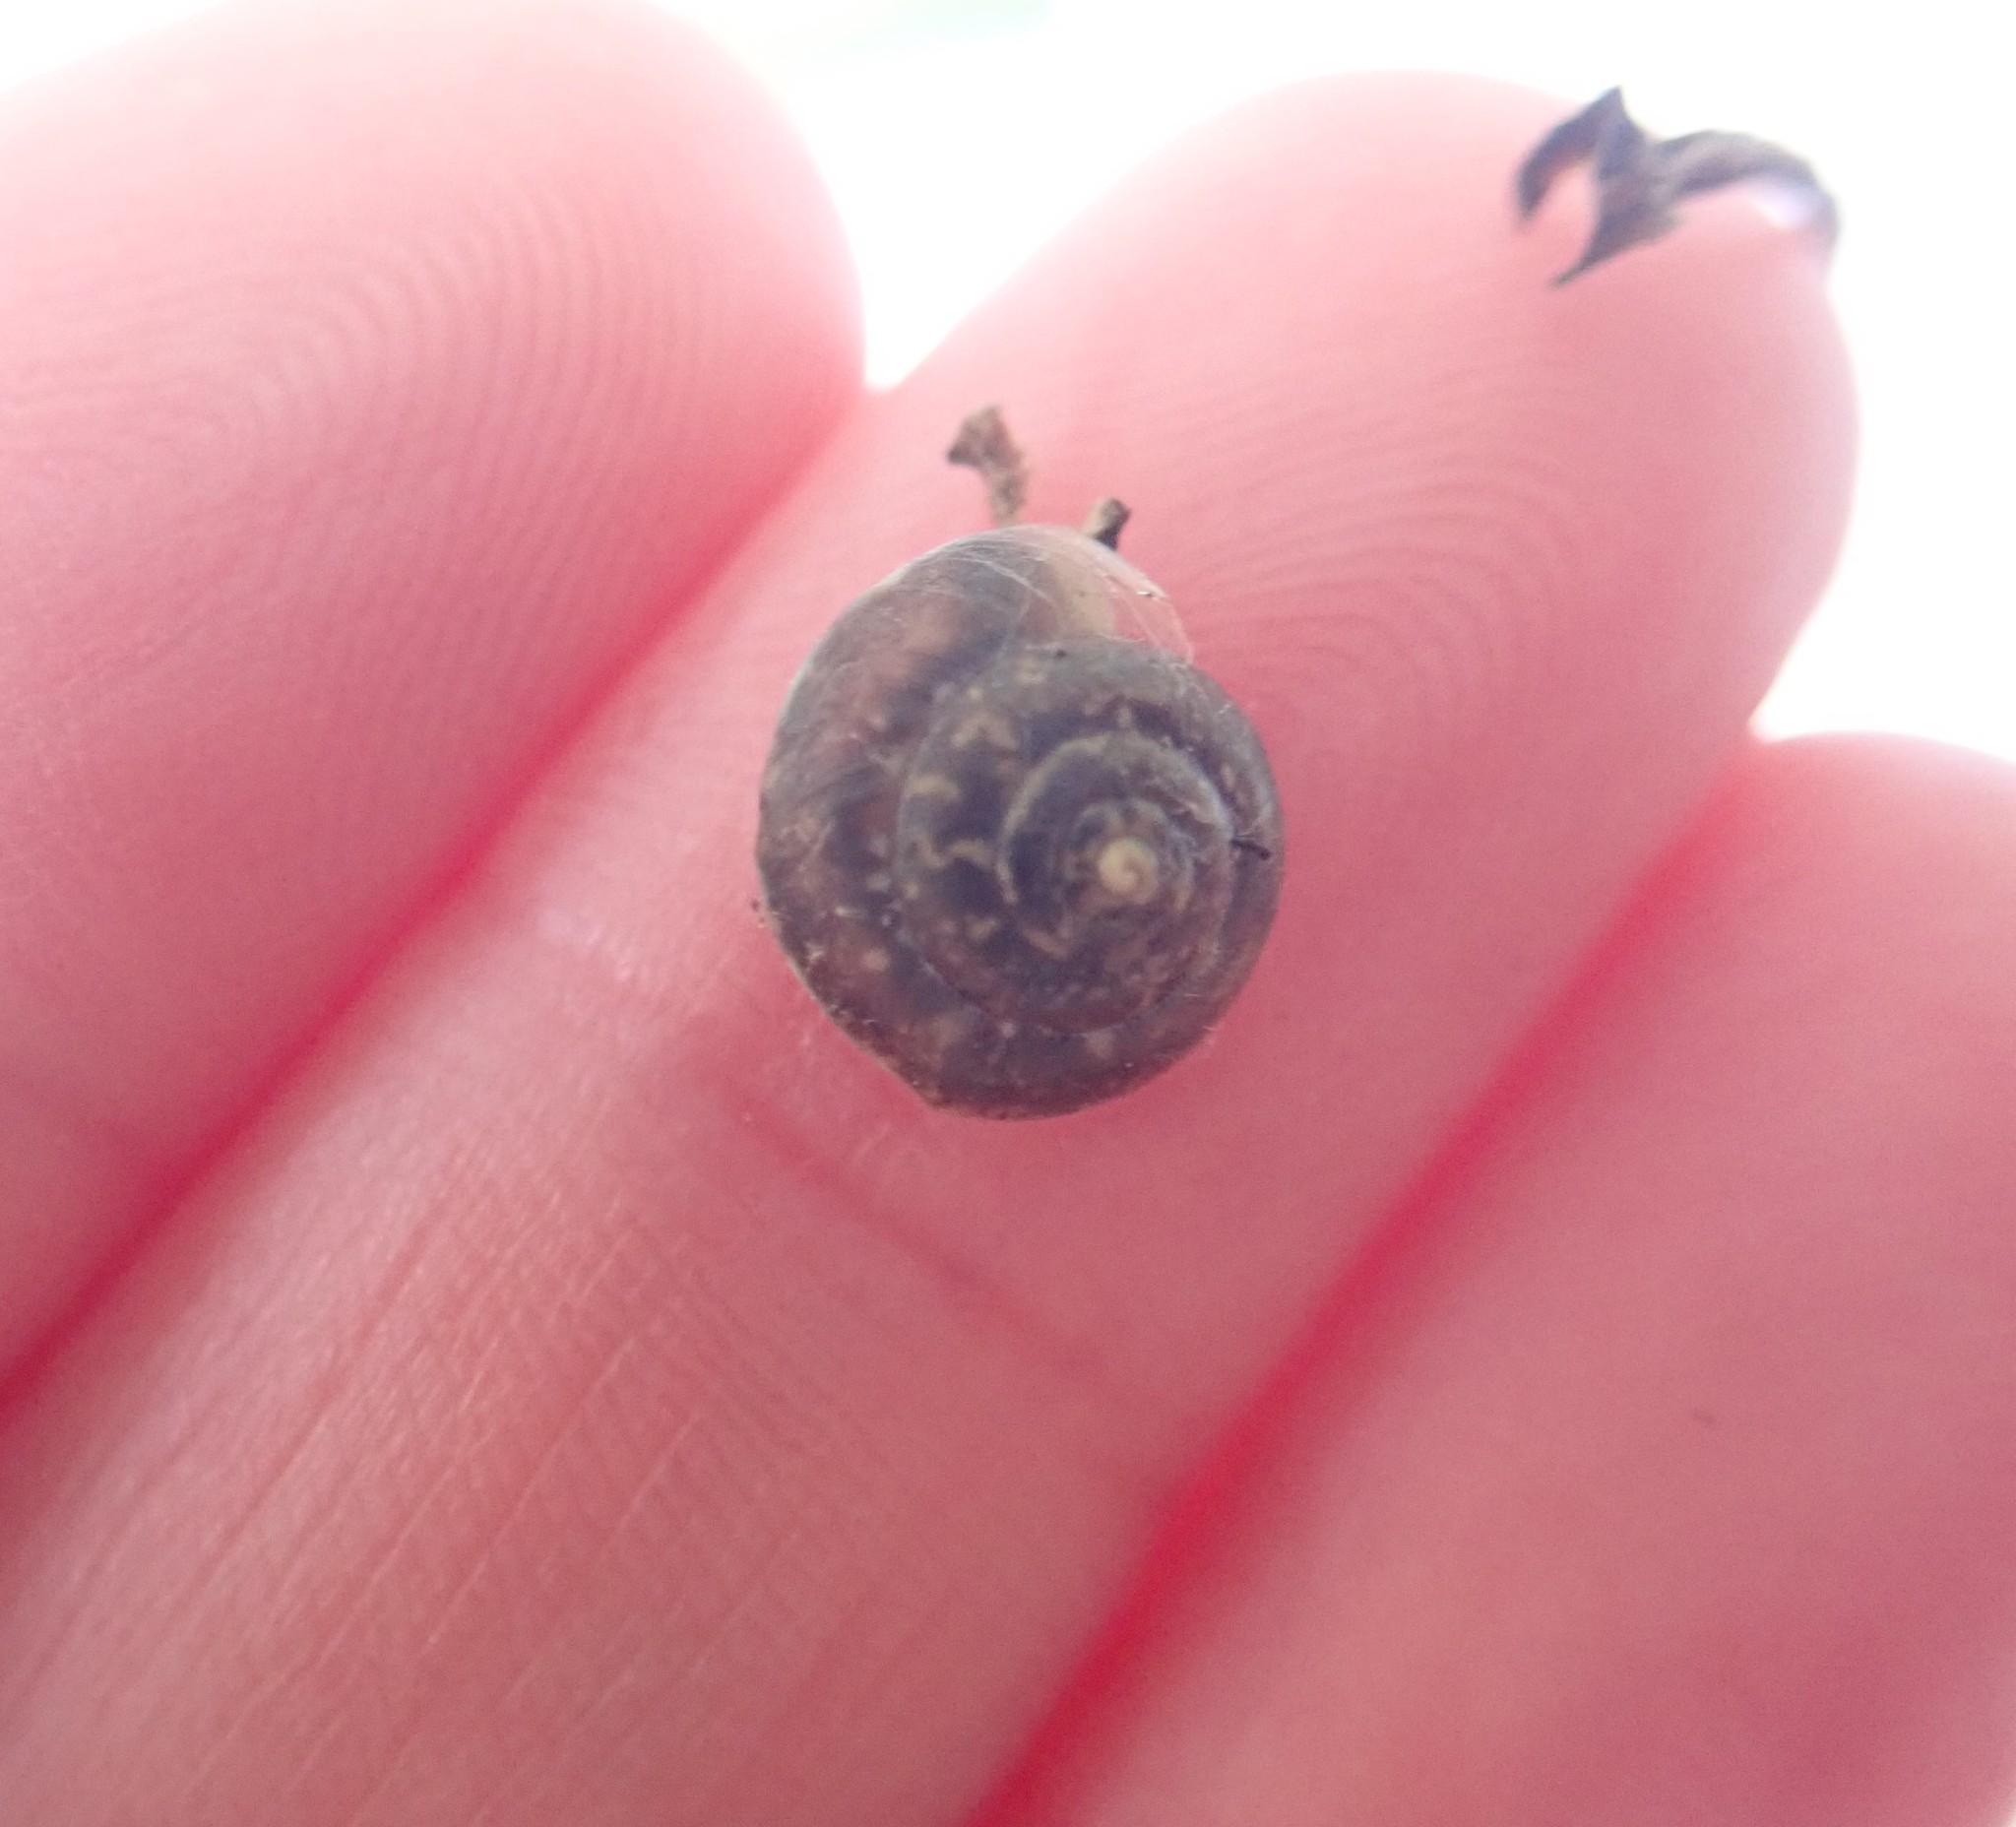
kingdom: Animalia
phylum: Mollusca
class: Gastropoda
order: Stylommatophora
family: Hygromiidae
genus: Hygromia
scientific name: Hygromia cinctella
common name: Girdled snail
